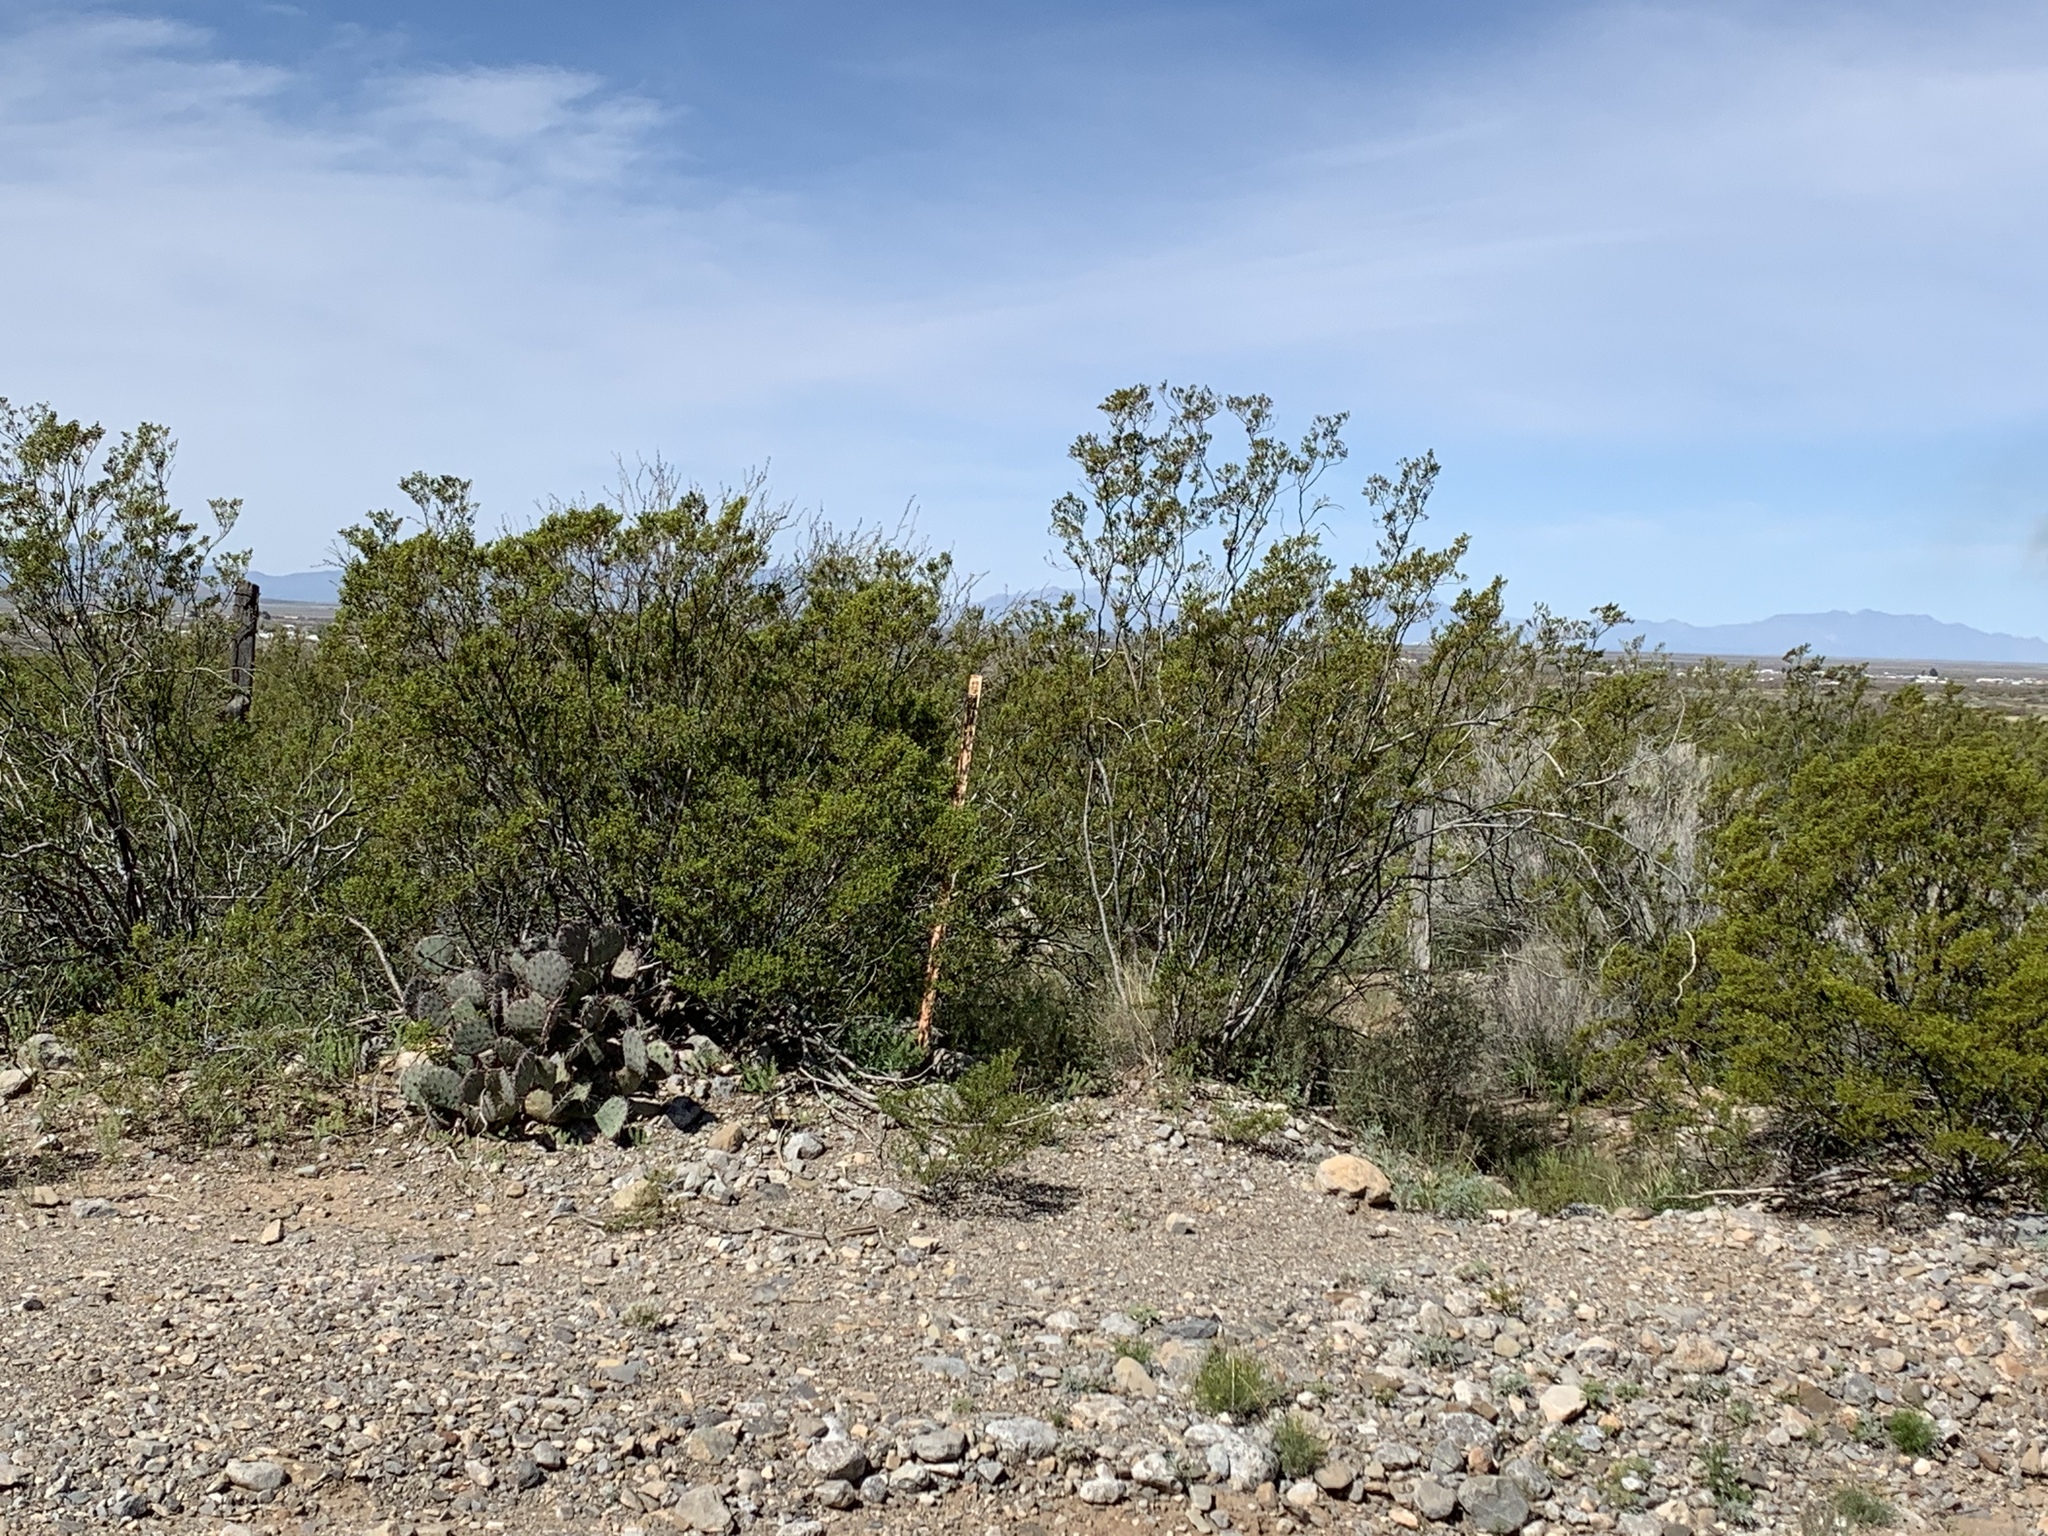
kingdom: Plantae
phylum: Tracheophyta
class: Magnoliopsida
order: Zygophyllales
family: Zygophyllaceae
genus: Larrea
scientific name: Larrea tridentata
